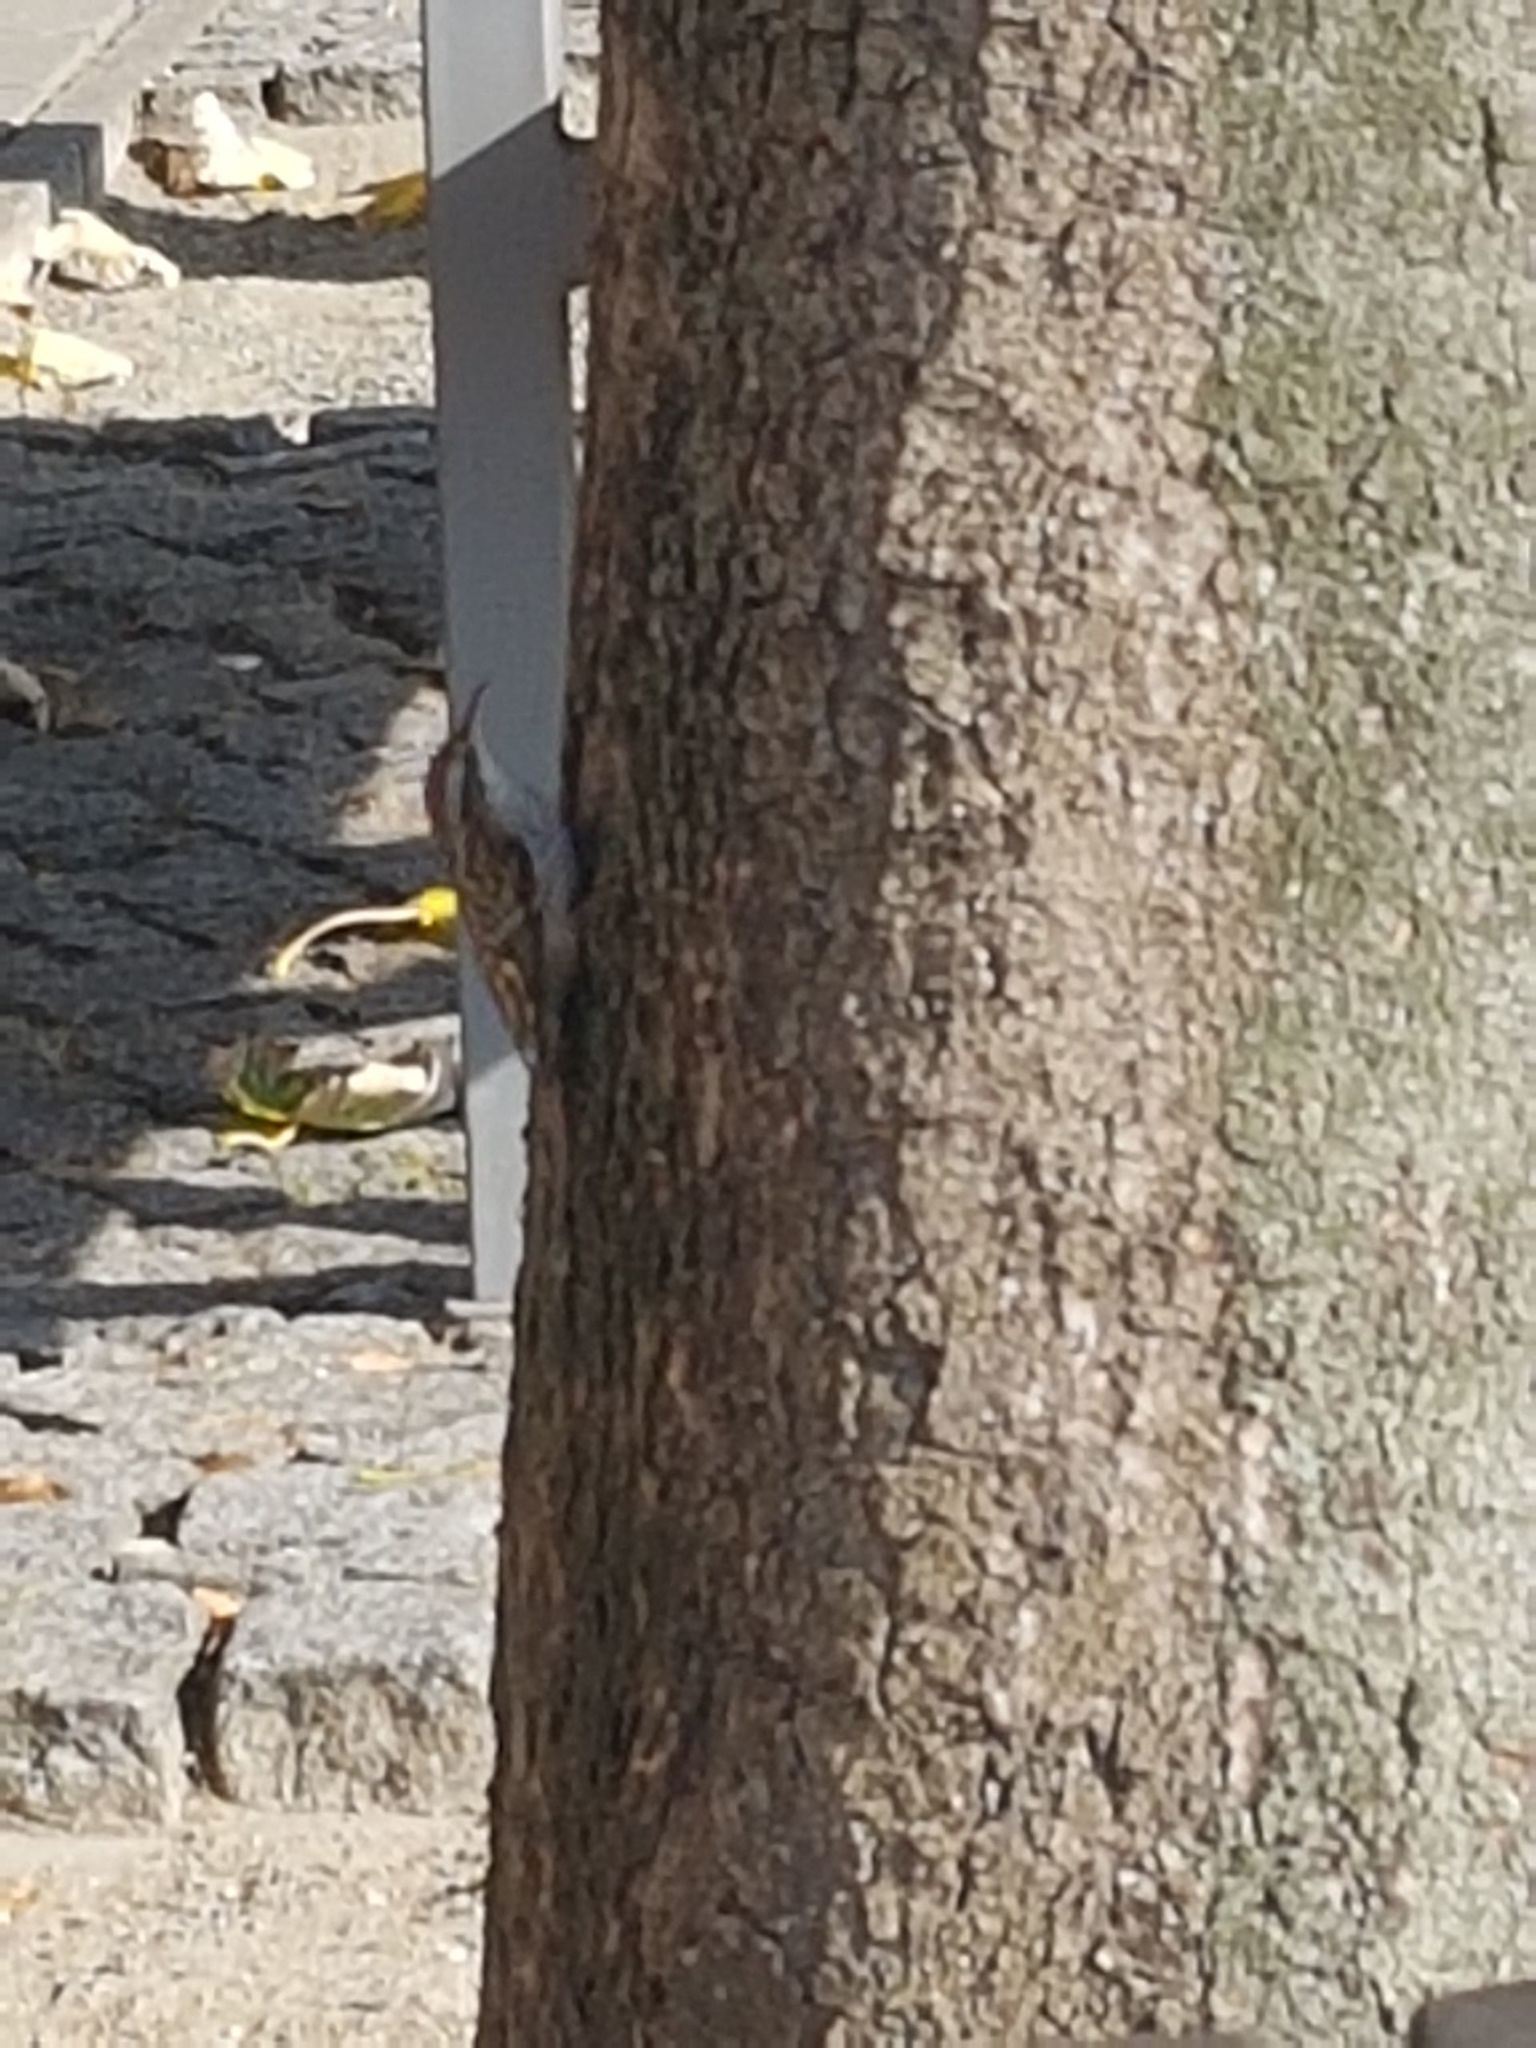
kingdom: Animalia
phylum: Chordata
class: Aves
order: Passeriformes
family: Certhiidae
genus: Certhia
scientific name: Certhia familiaris
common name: Eurasian treecreeper
